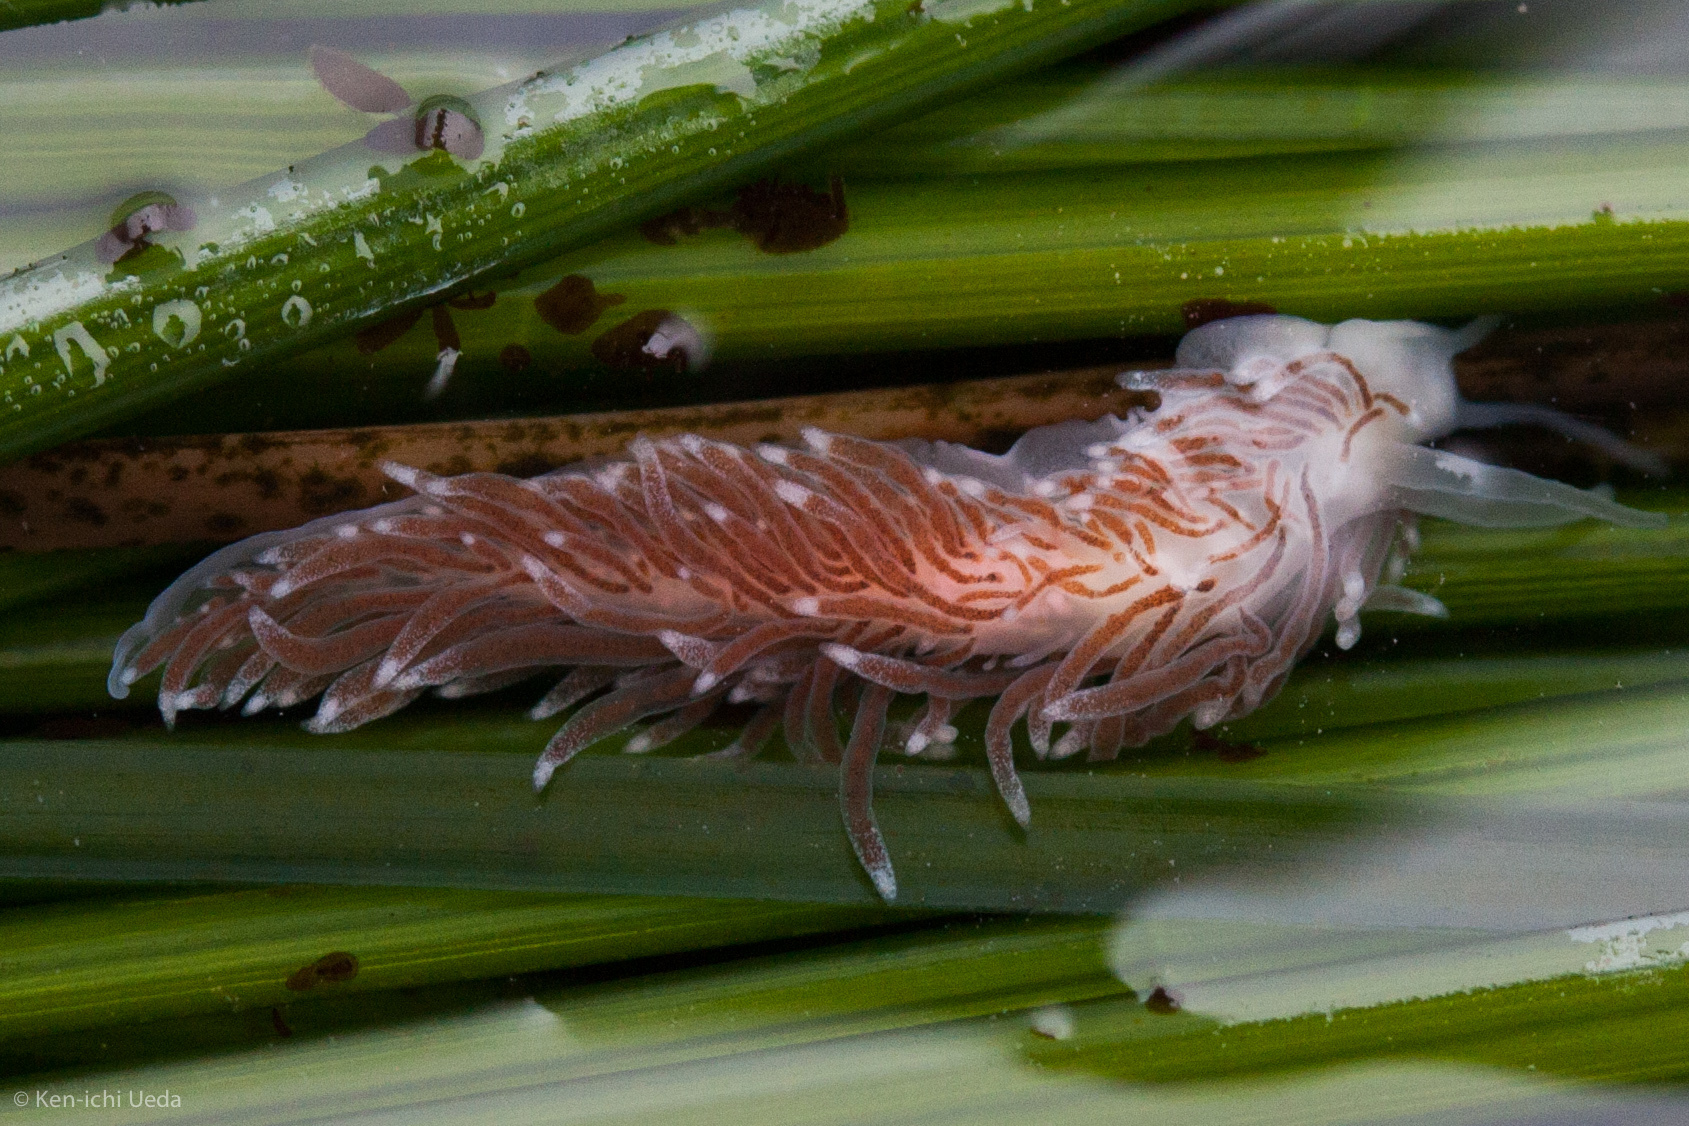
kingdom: Animalia
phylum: Mollusca
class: Gastropoda
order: Nudibranchia
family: Cuthonidae
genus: Cuthona
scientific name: Cuthona divae
